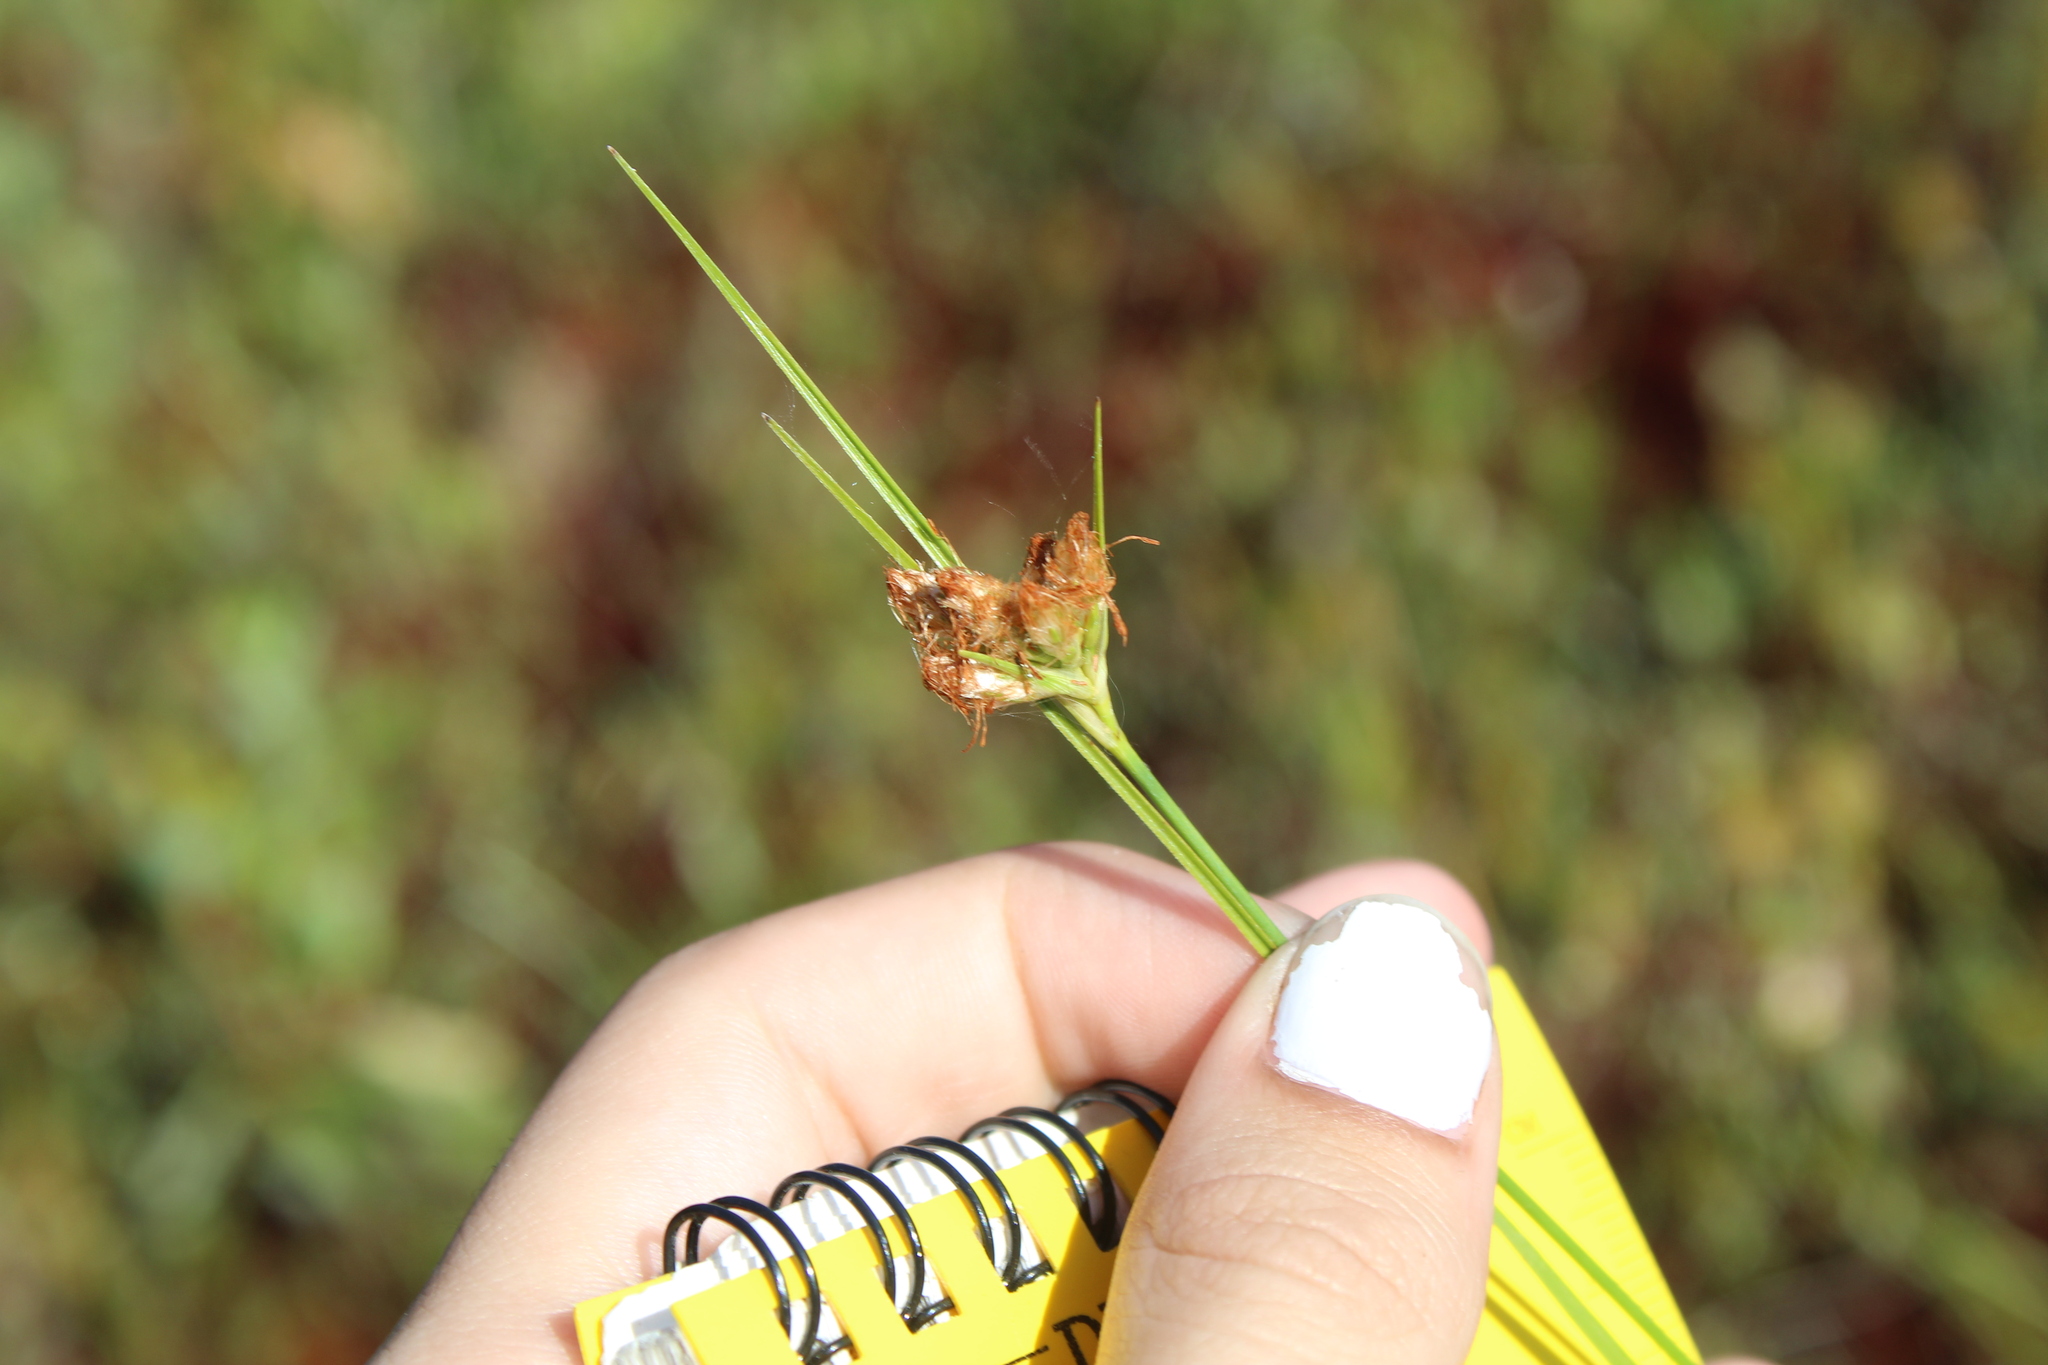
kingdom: Plantae
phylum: Tracheophyta
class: Liliopsida
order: Poales
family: Cyperaceae
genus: Eriophorum
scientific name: Eriophorum virginicum
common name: Tawny cottongrass
